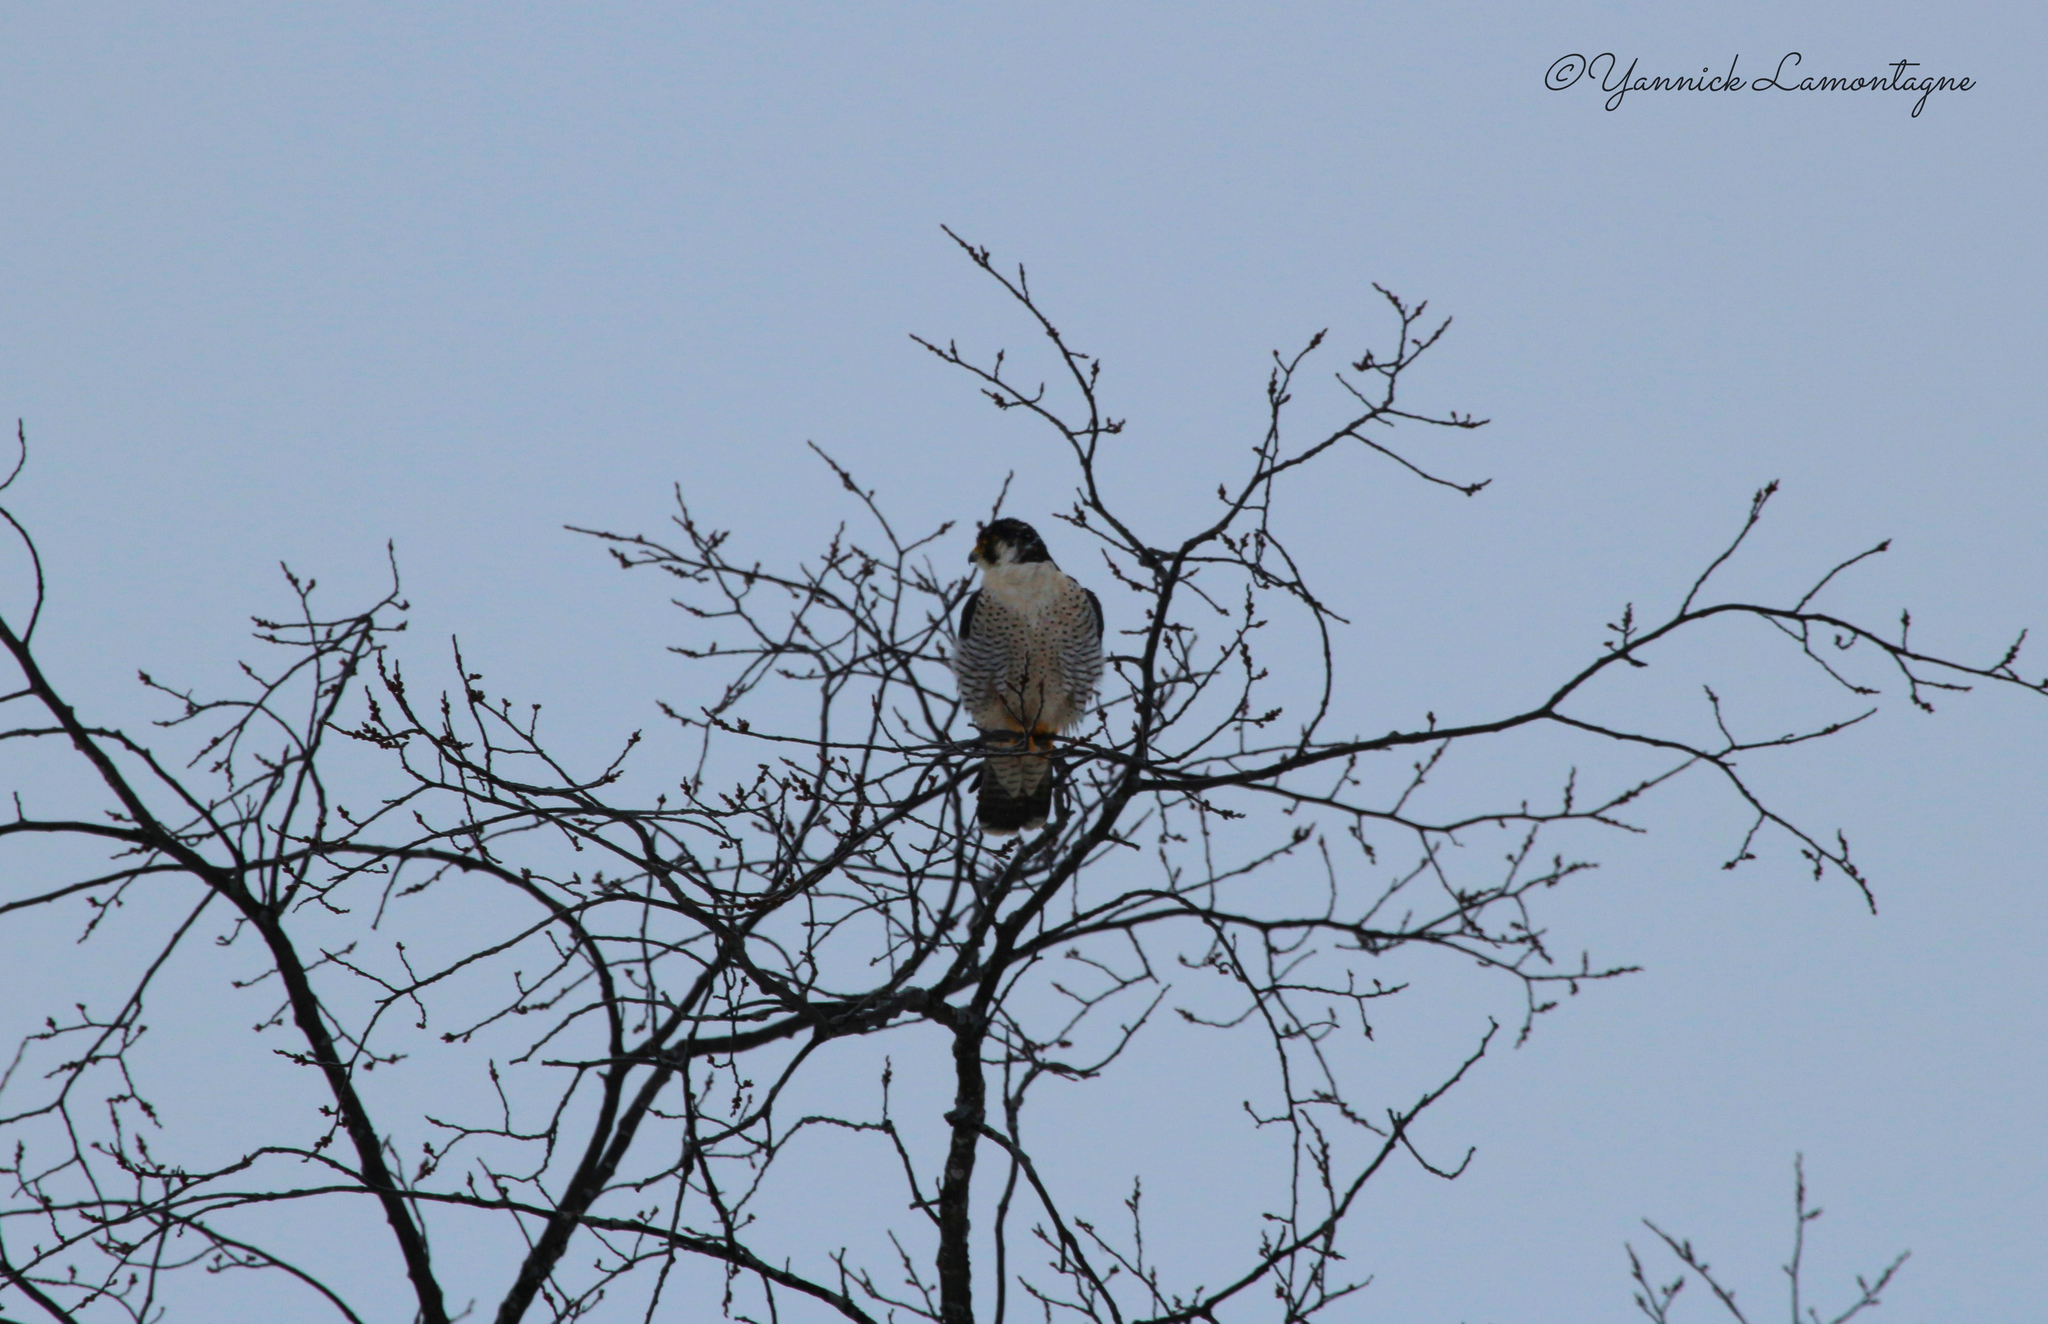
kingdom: Animalia
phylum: Chordata
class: Aves
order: Falconiformes
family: Falconidae
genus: Falco
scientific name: Falco peregrinus
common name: Peregrine falcon
